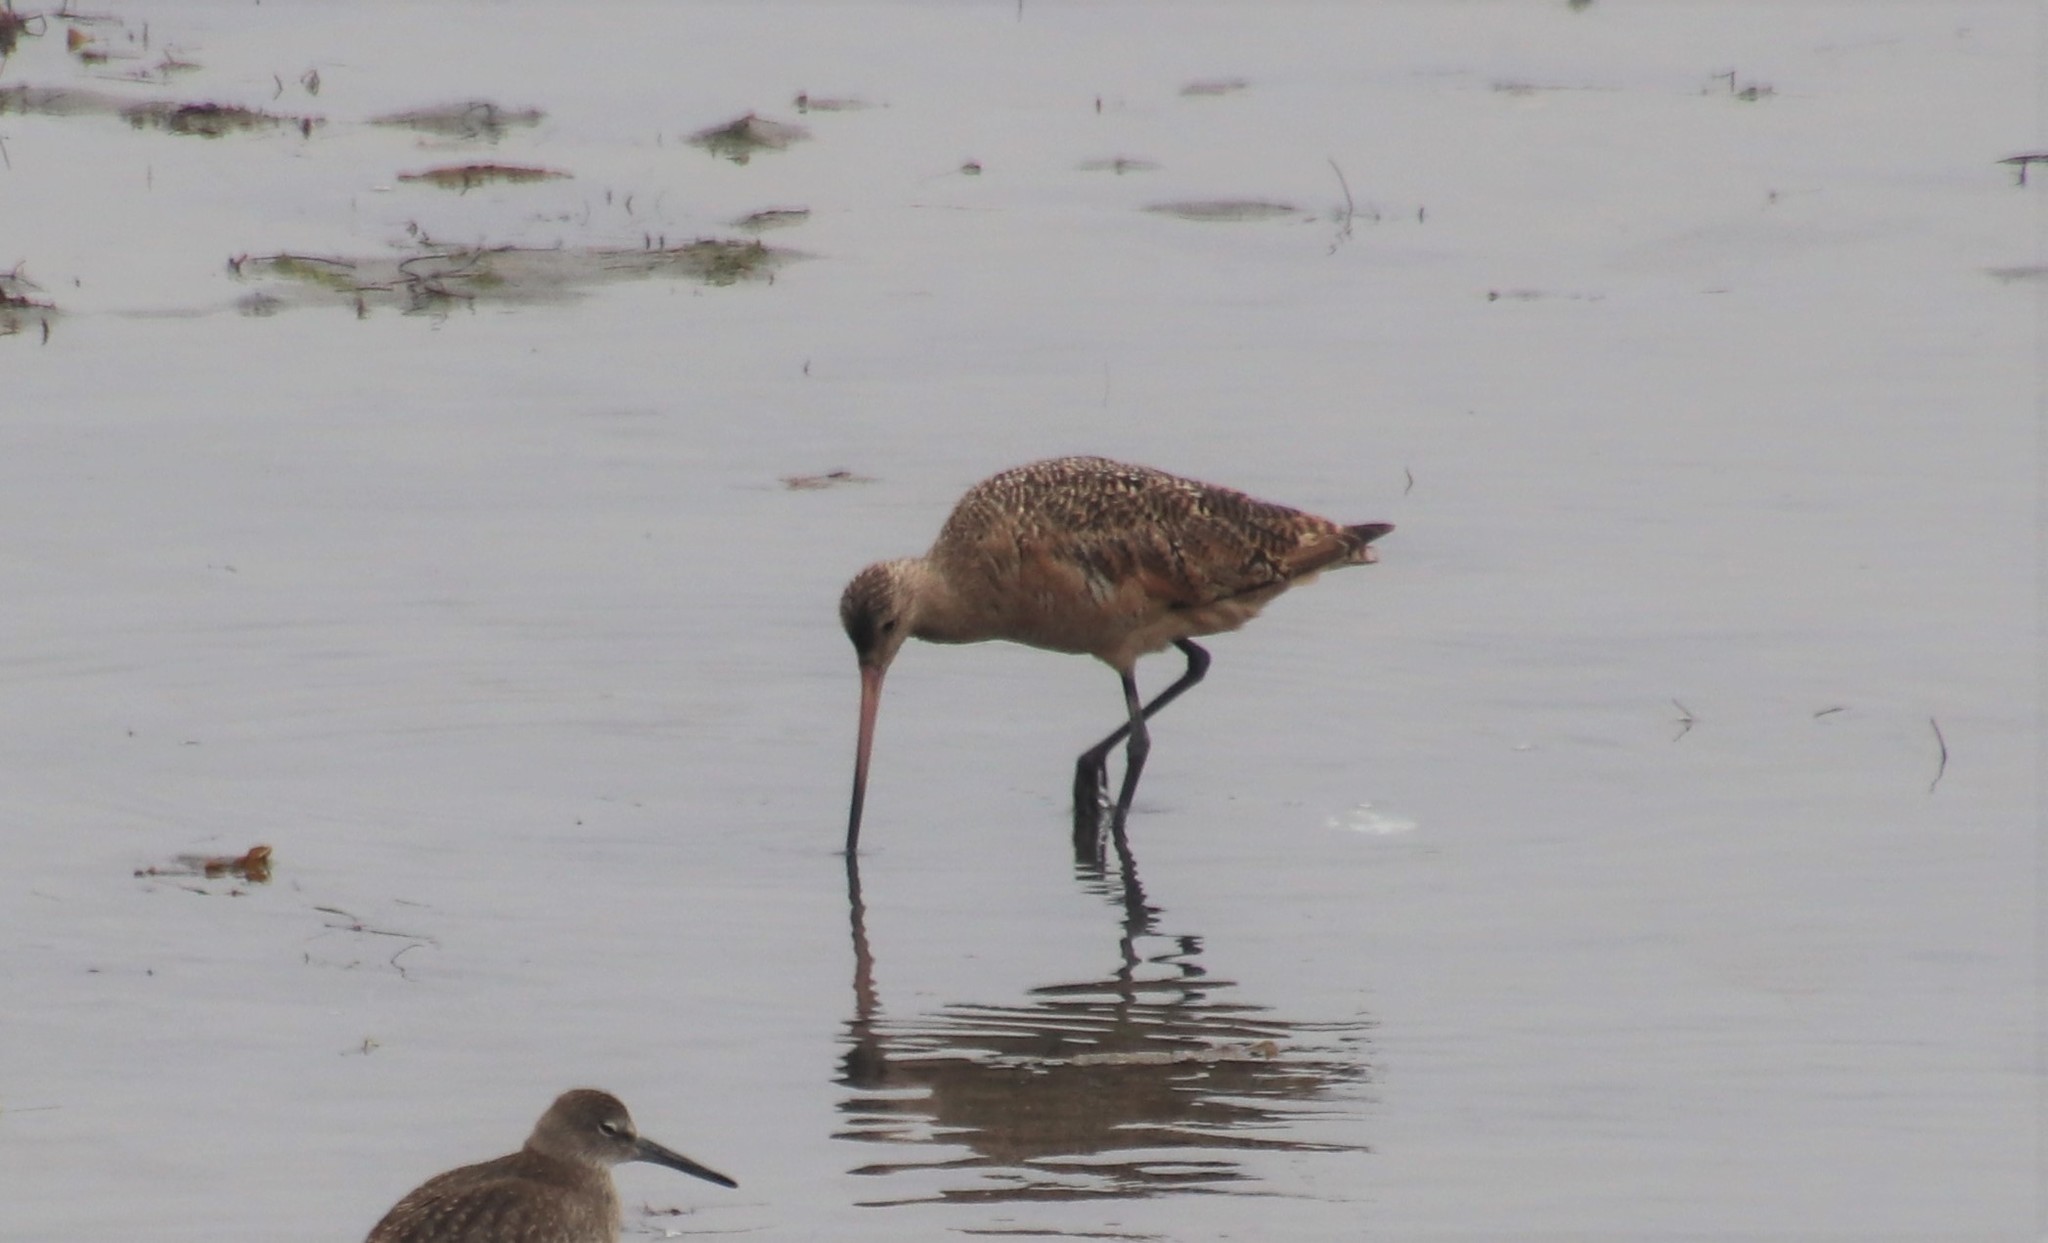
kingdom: Animalia
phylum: Chordata
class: Aves
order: Charadriiformes
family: Scolopacidae
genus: Limosa
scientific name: Limosa fedoa
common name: Marbled godwit
